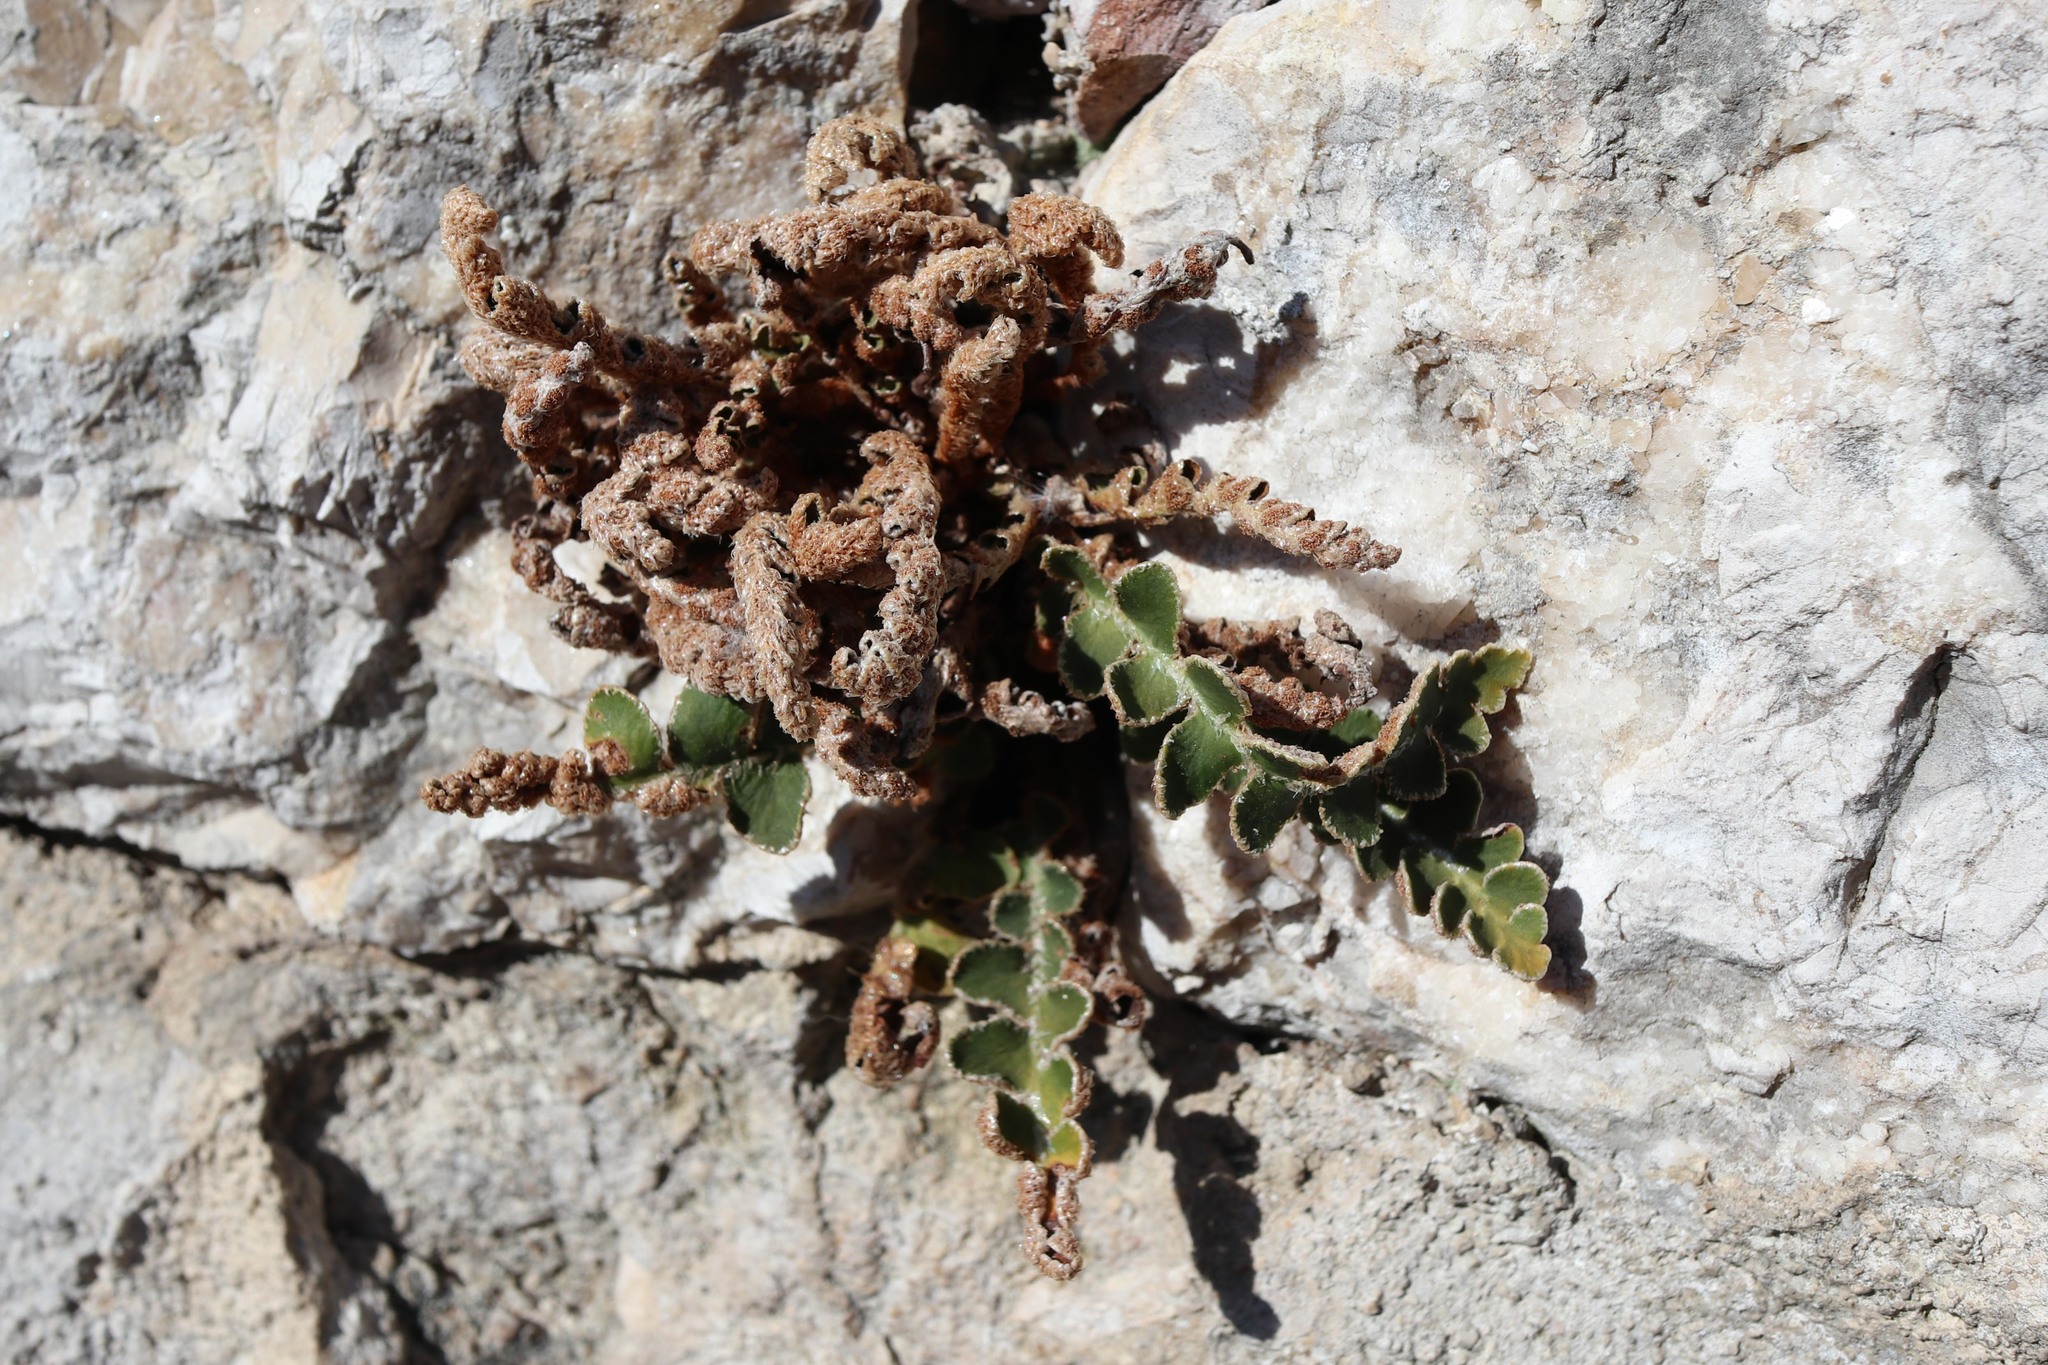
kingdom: Plantae
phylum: Tracheophyta
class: Polypodiopsida
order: Polypodiales
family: Aspleniaceae
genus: Asplenium
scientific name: Asplenium ceterach
